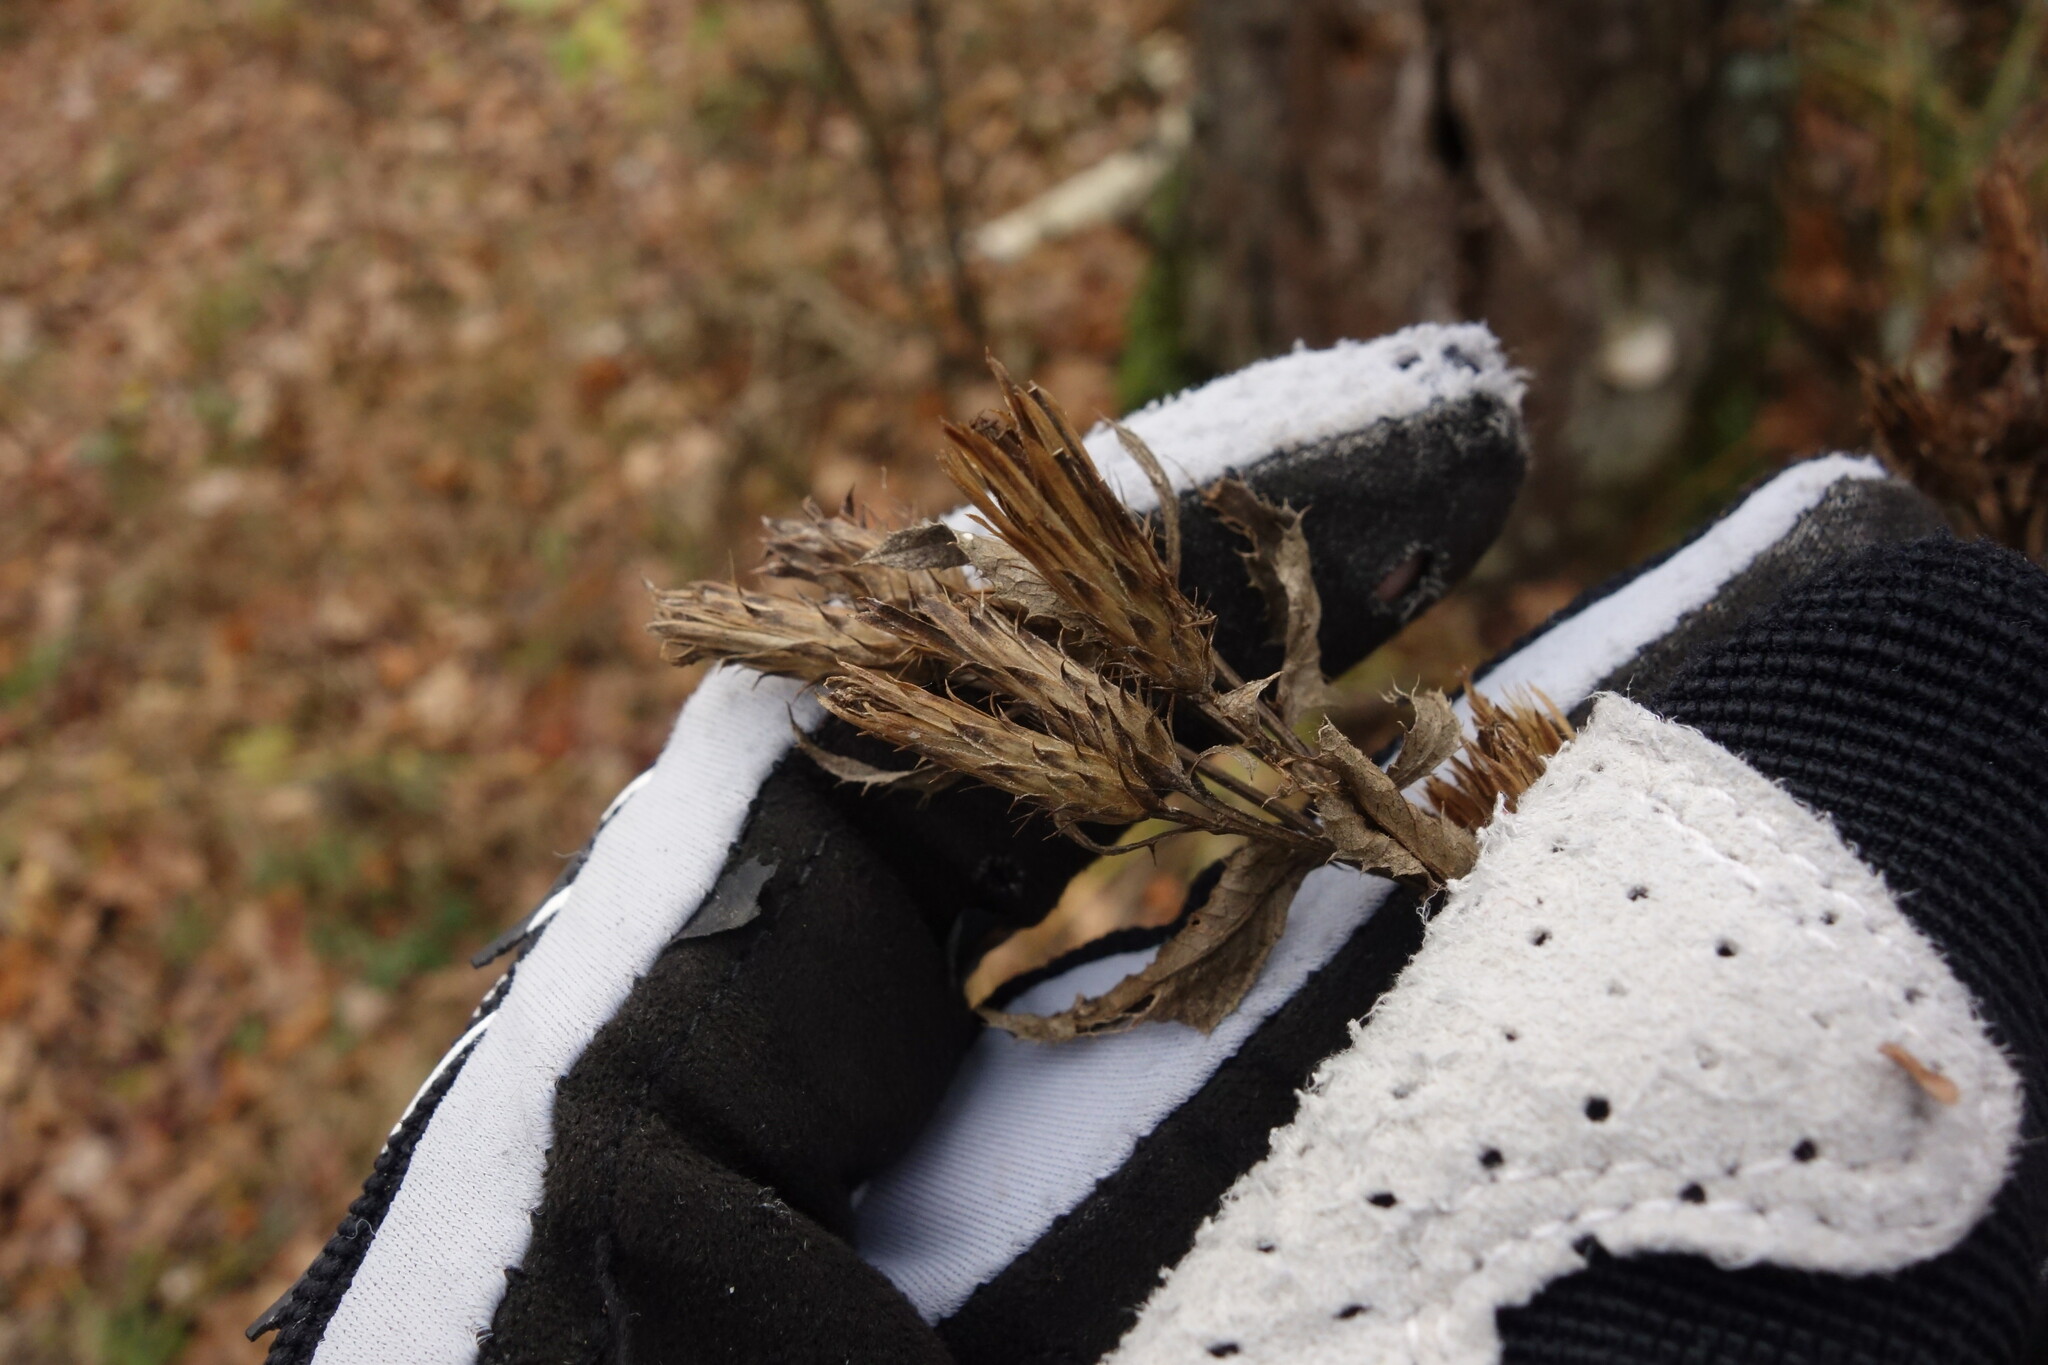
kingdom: Plantae
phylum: Tracheophyta
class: Magnoliopsida
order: Asterales
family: Asteraceae
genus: Serratula
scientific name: Serratula tinctoria
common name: Saw-wort
